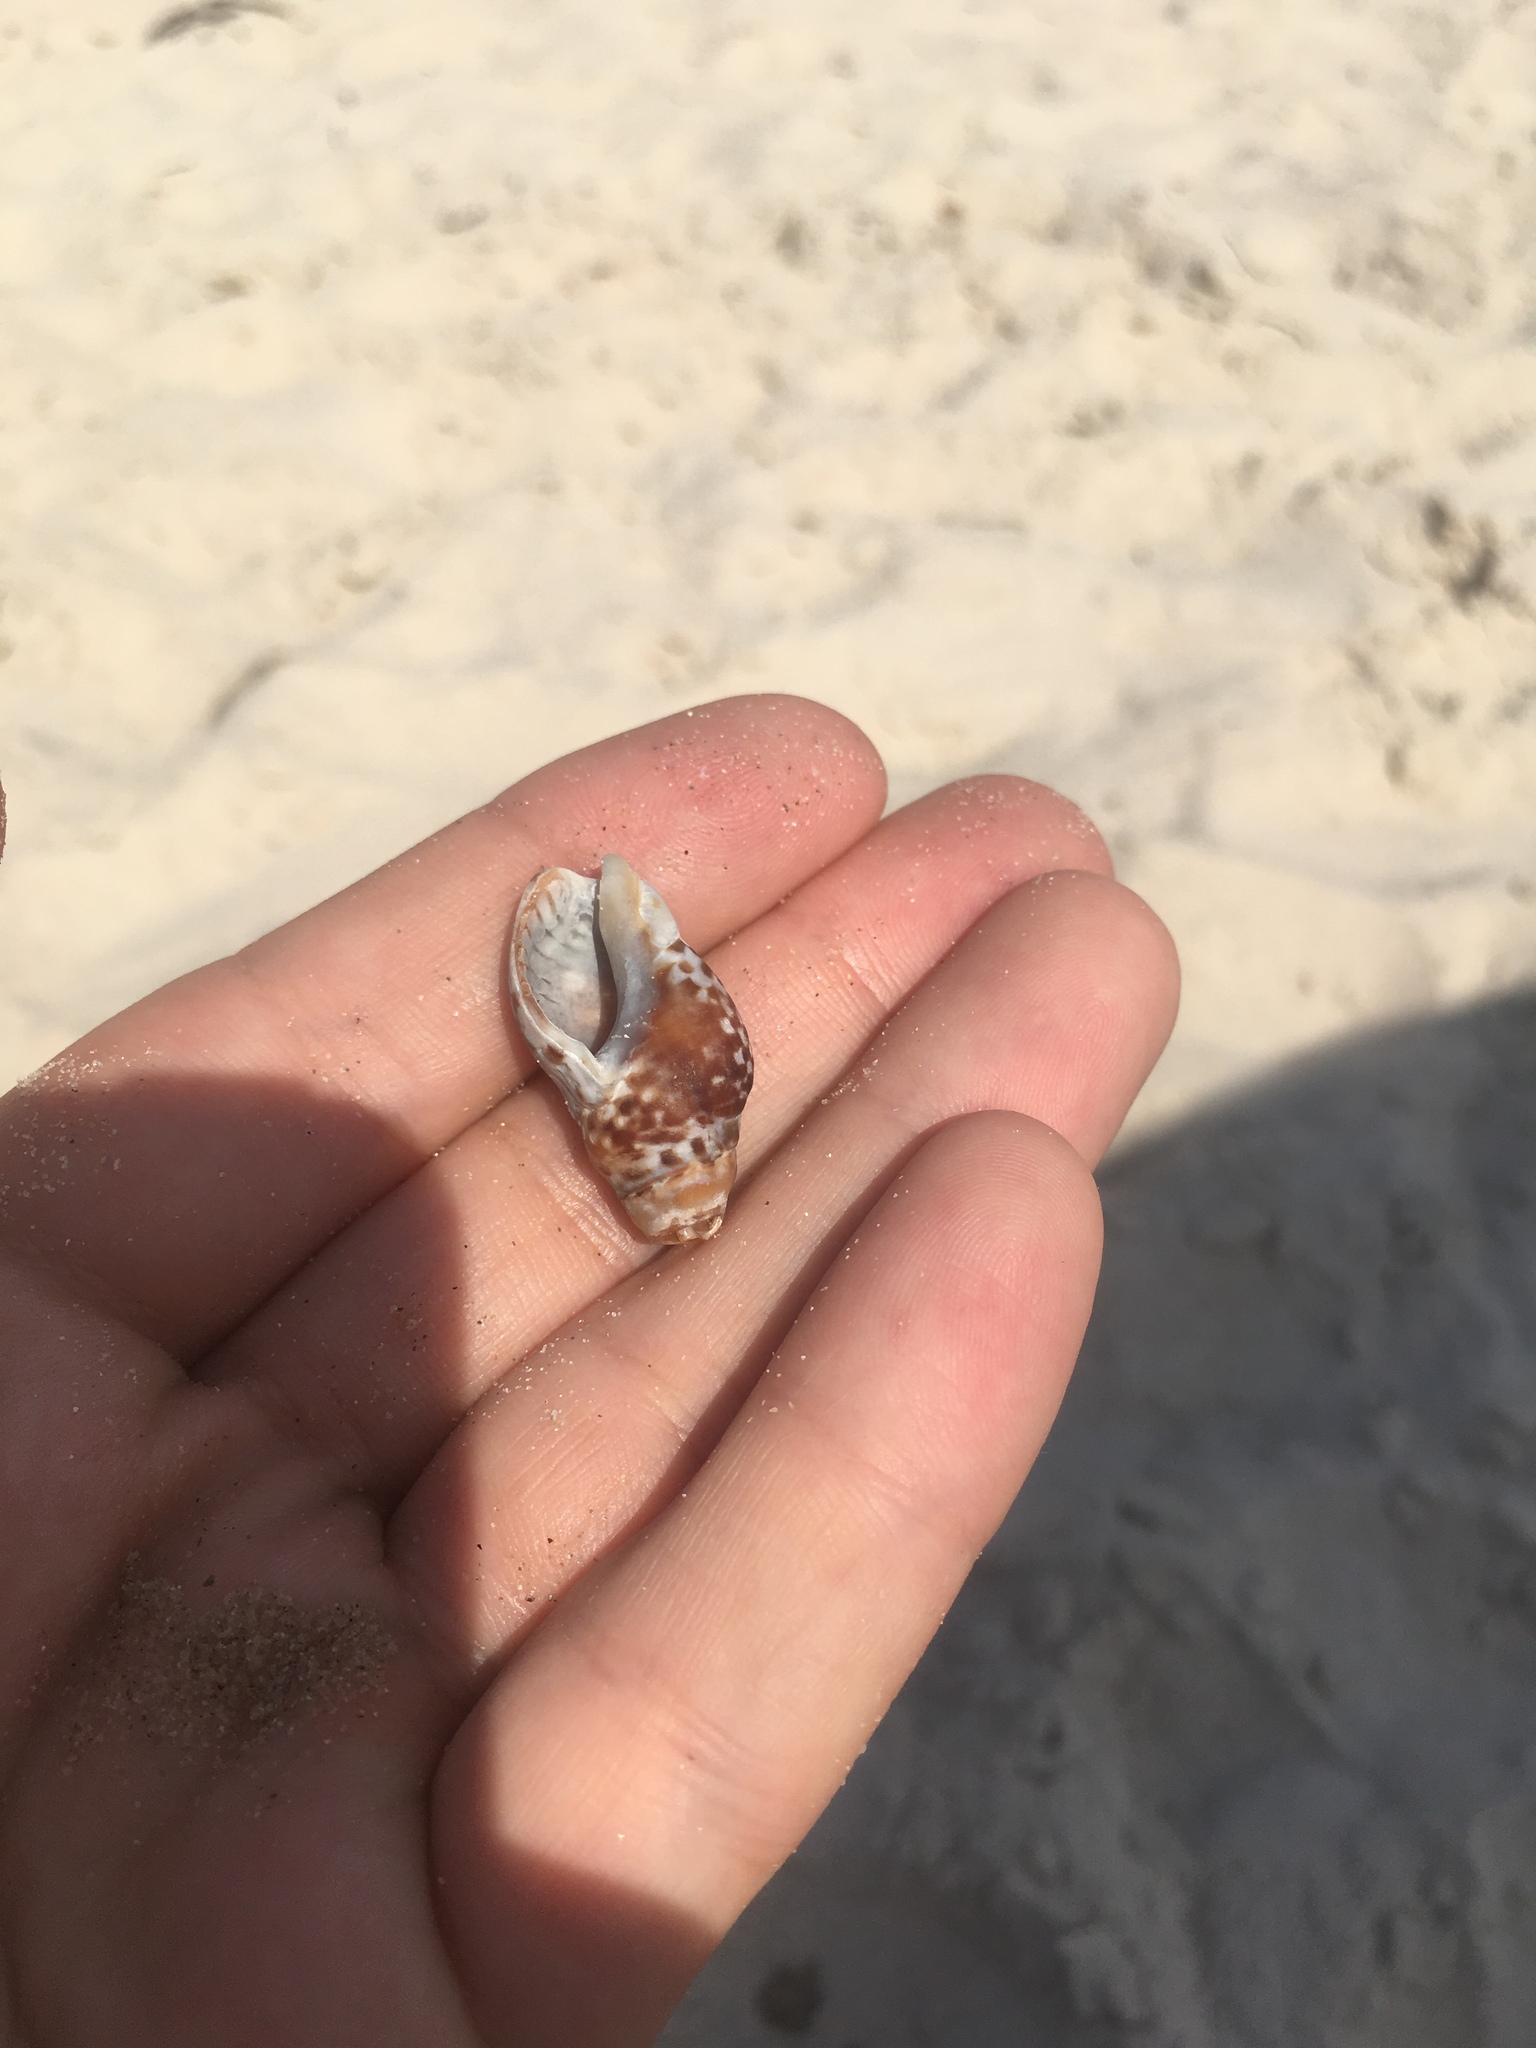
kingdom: Animalia
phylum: Mollusca
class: Gastropoda
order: Neogastropoda
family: Cominellidae
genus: Cominella
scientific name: Cominella lineolata
